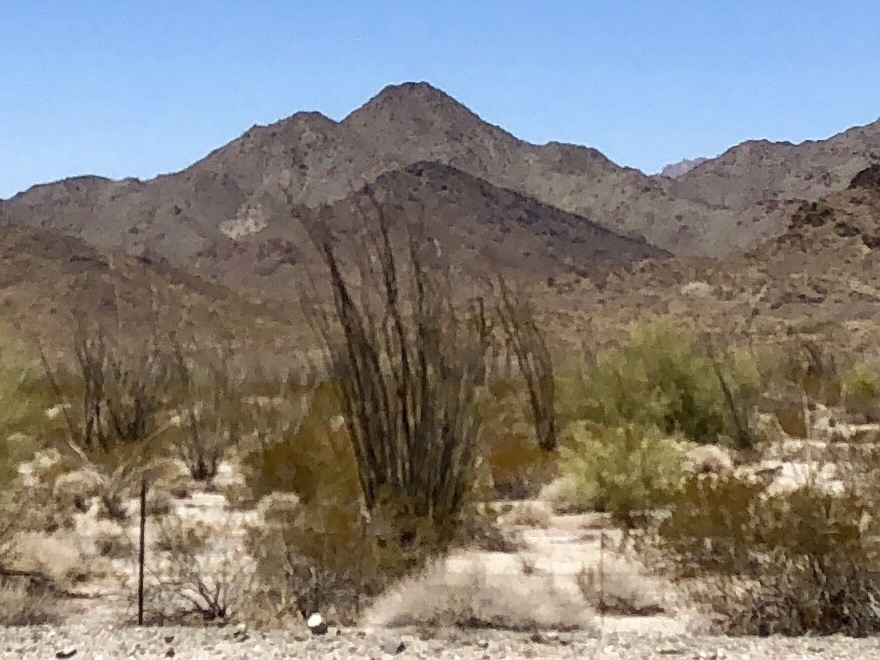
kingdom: Plantae
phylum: Tracheophyta
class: Magnoliopsida
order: Ericales
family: Fouquieriaceae
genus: Fouquieria
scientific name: Fouquieria splendens
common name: Vine-cactus
